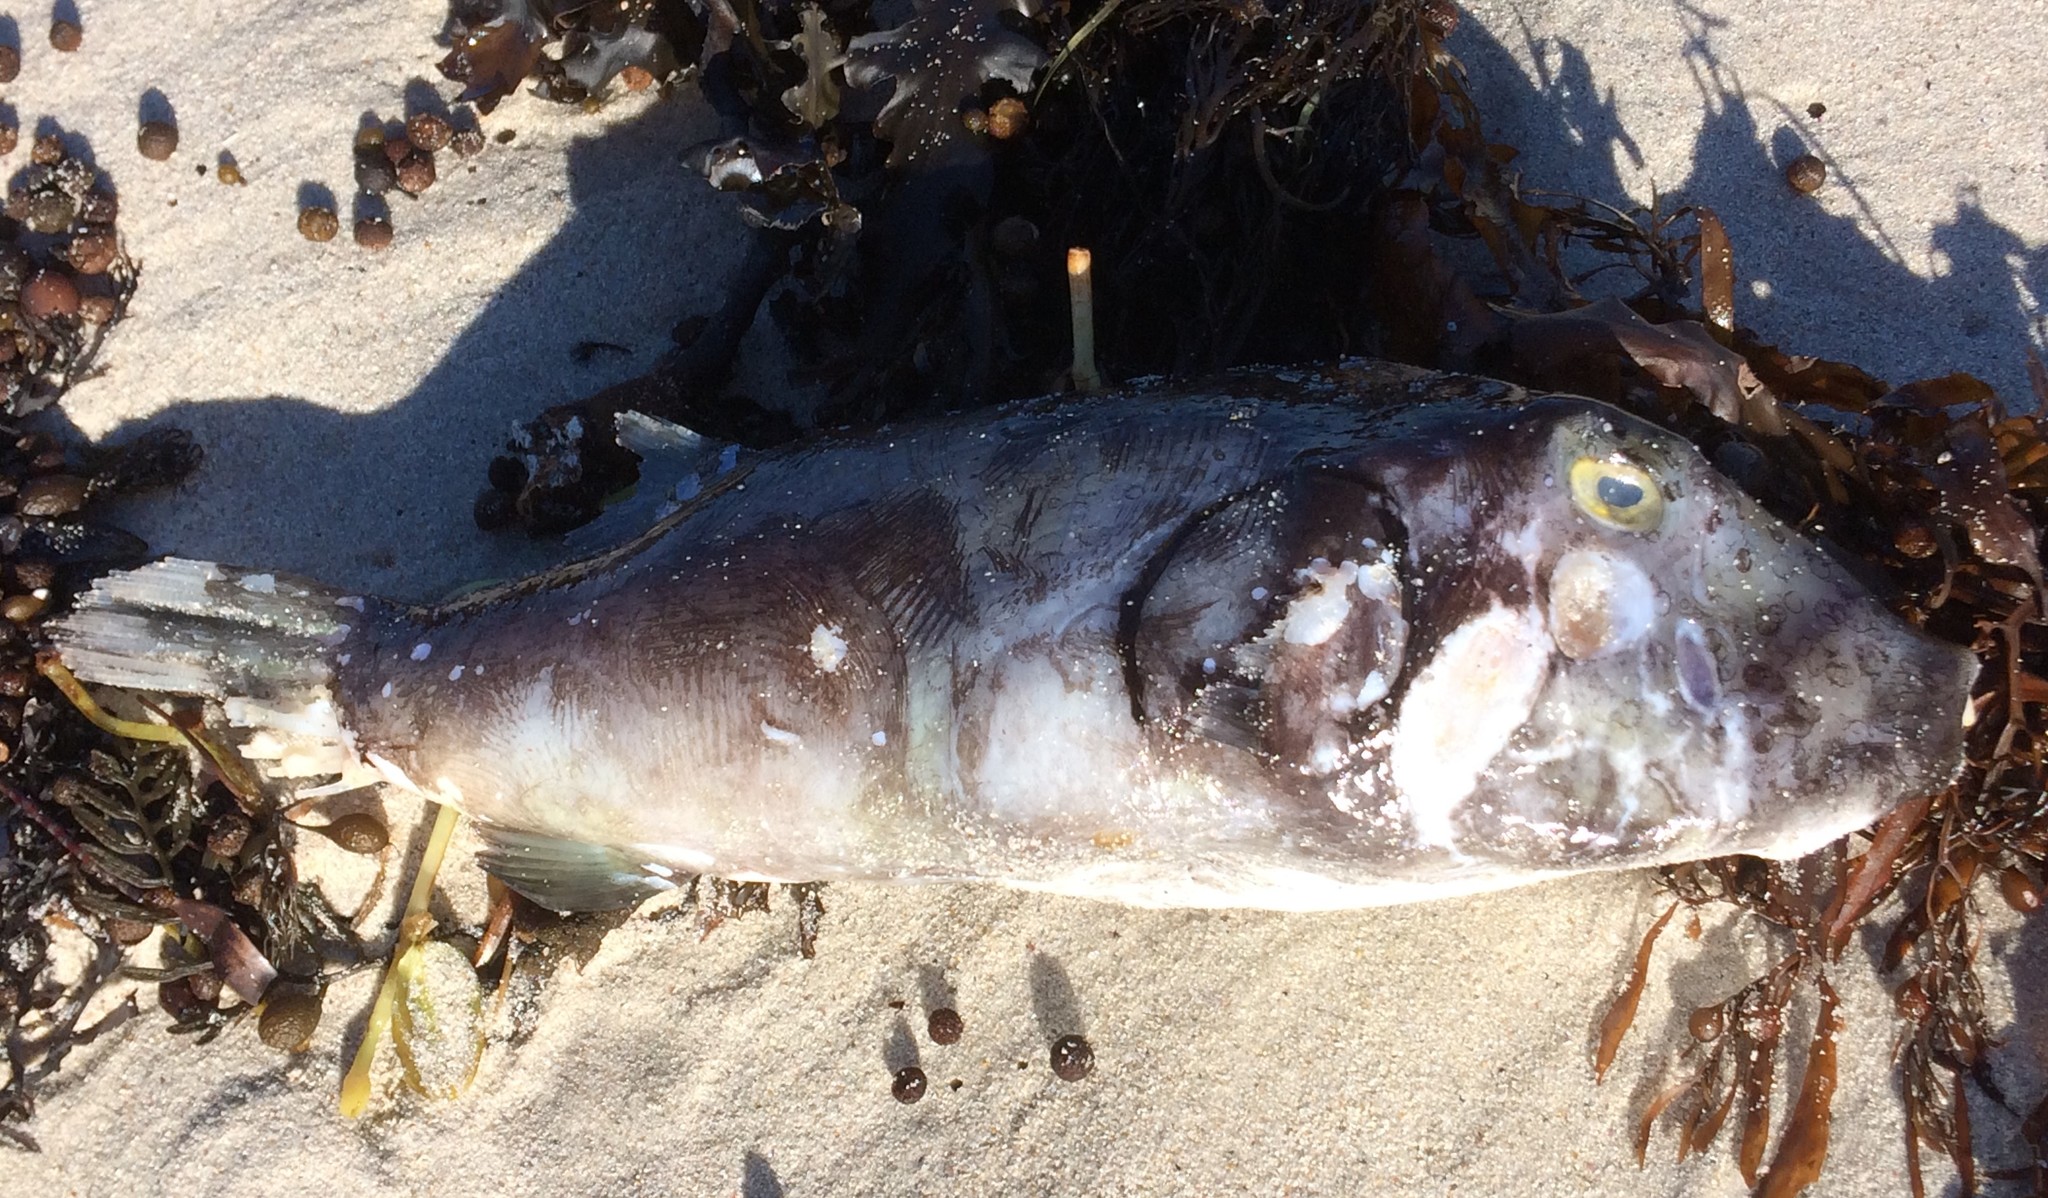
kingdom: Animalia
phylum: Chordata
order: Tetraodontiformes
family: Tetraodontidae
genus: Omegophora
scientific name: Omegophora armilla
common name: Ringed pufferfish
